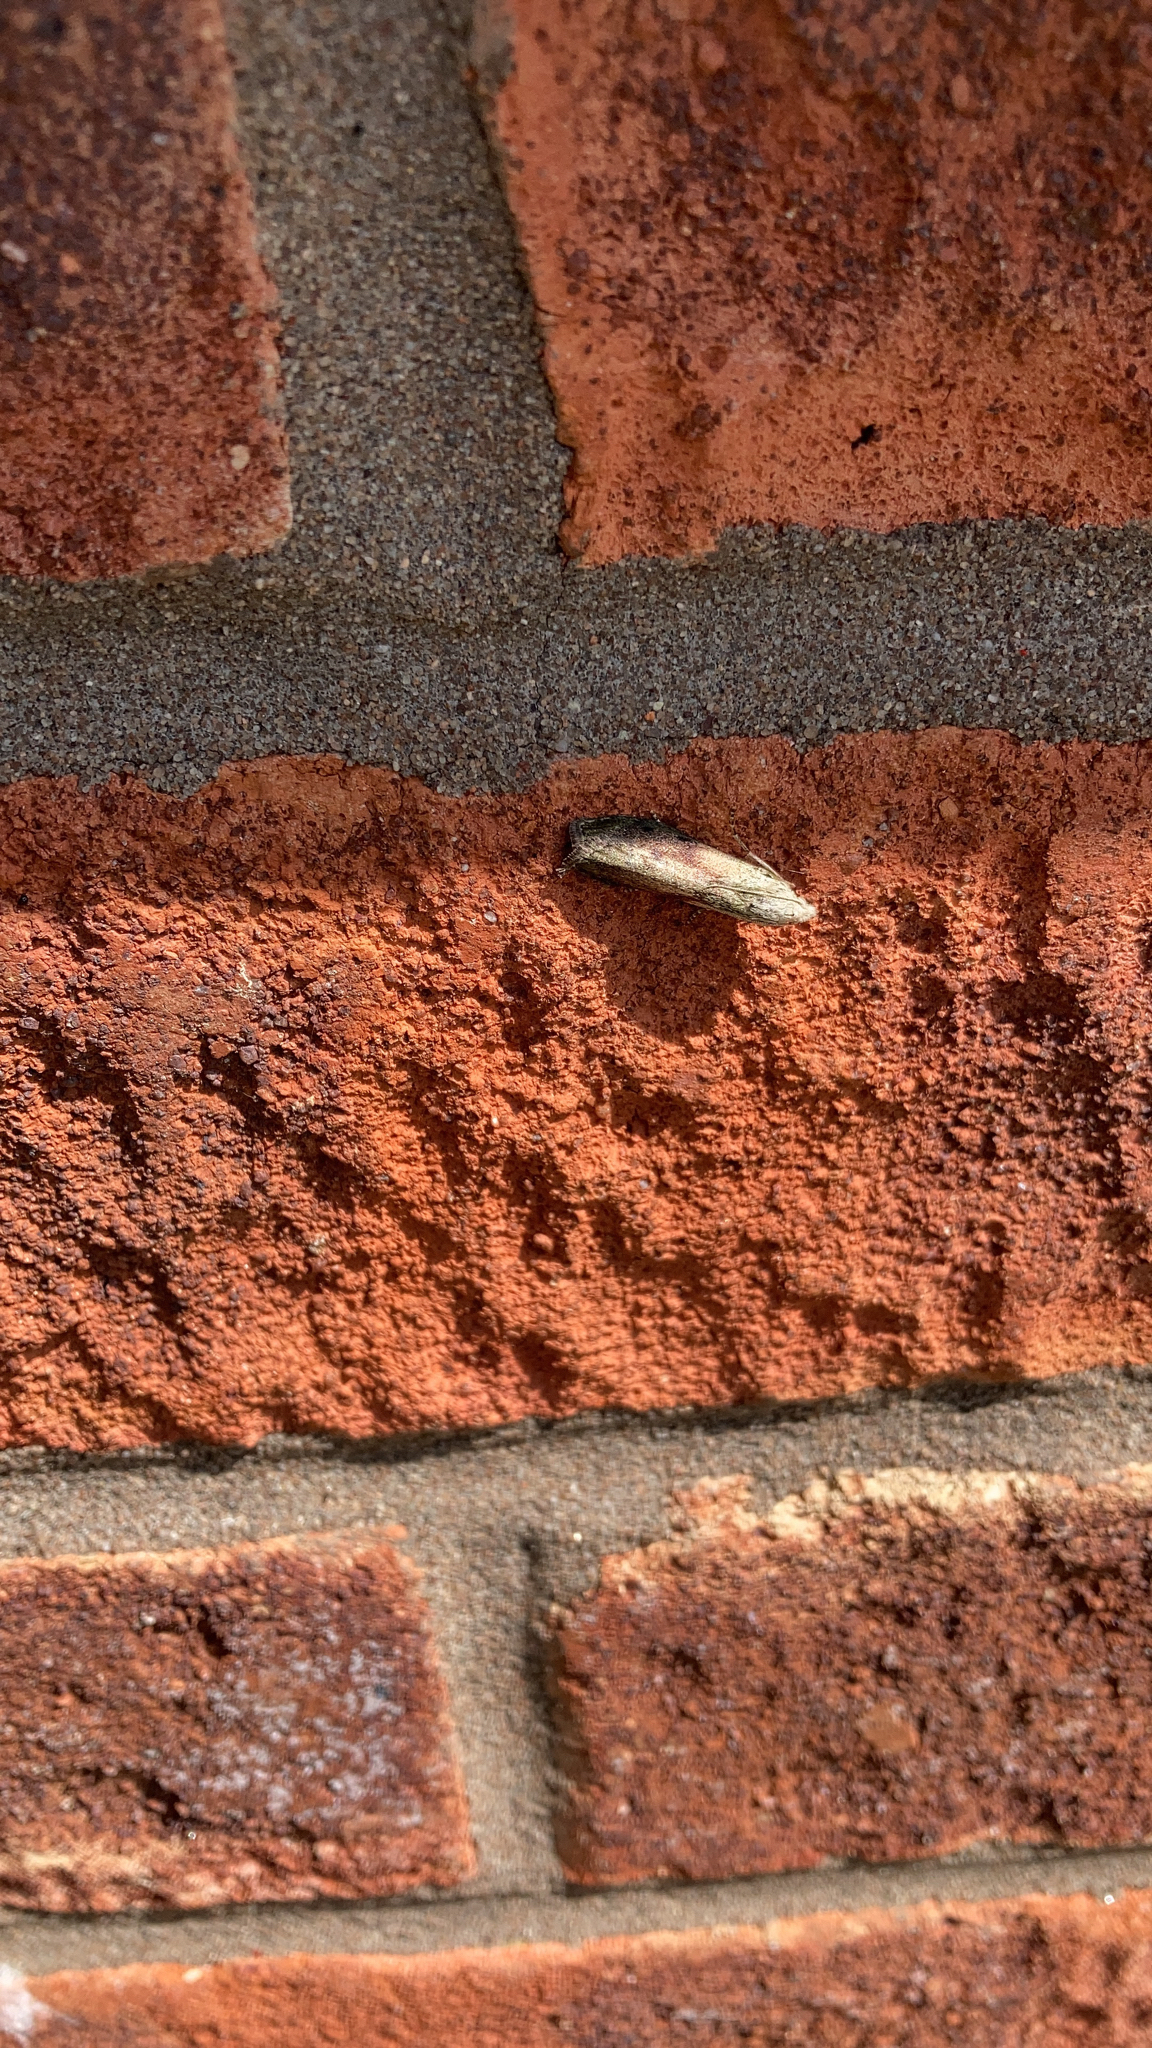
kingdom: Animalia
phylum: Arthropoda
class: Insecta
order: Lepidoptera
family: Pyralidae
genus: Aphomia
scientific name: Aphomia sociella
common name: Bee moth
